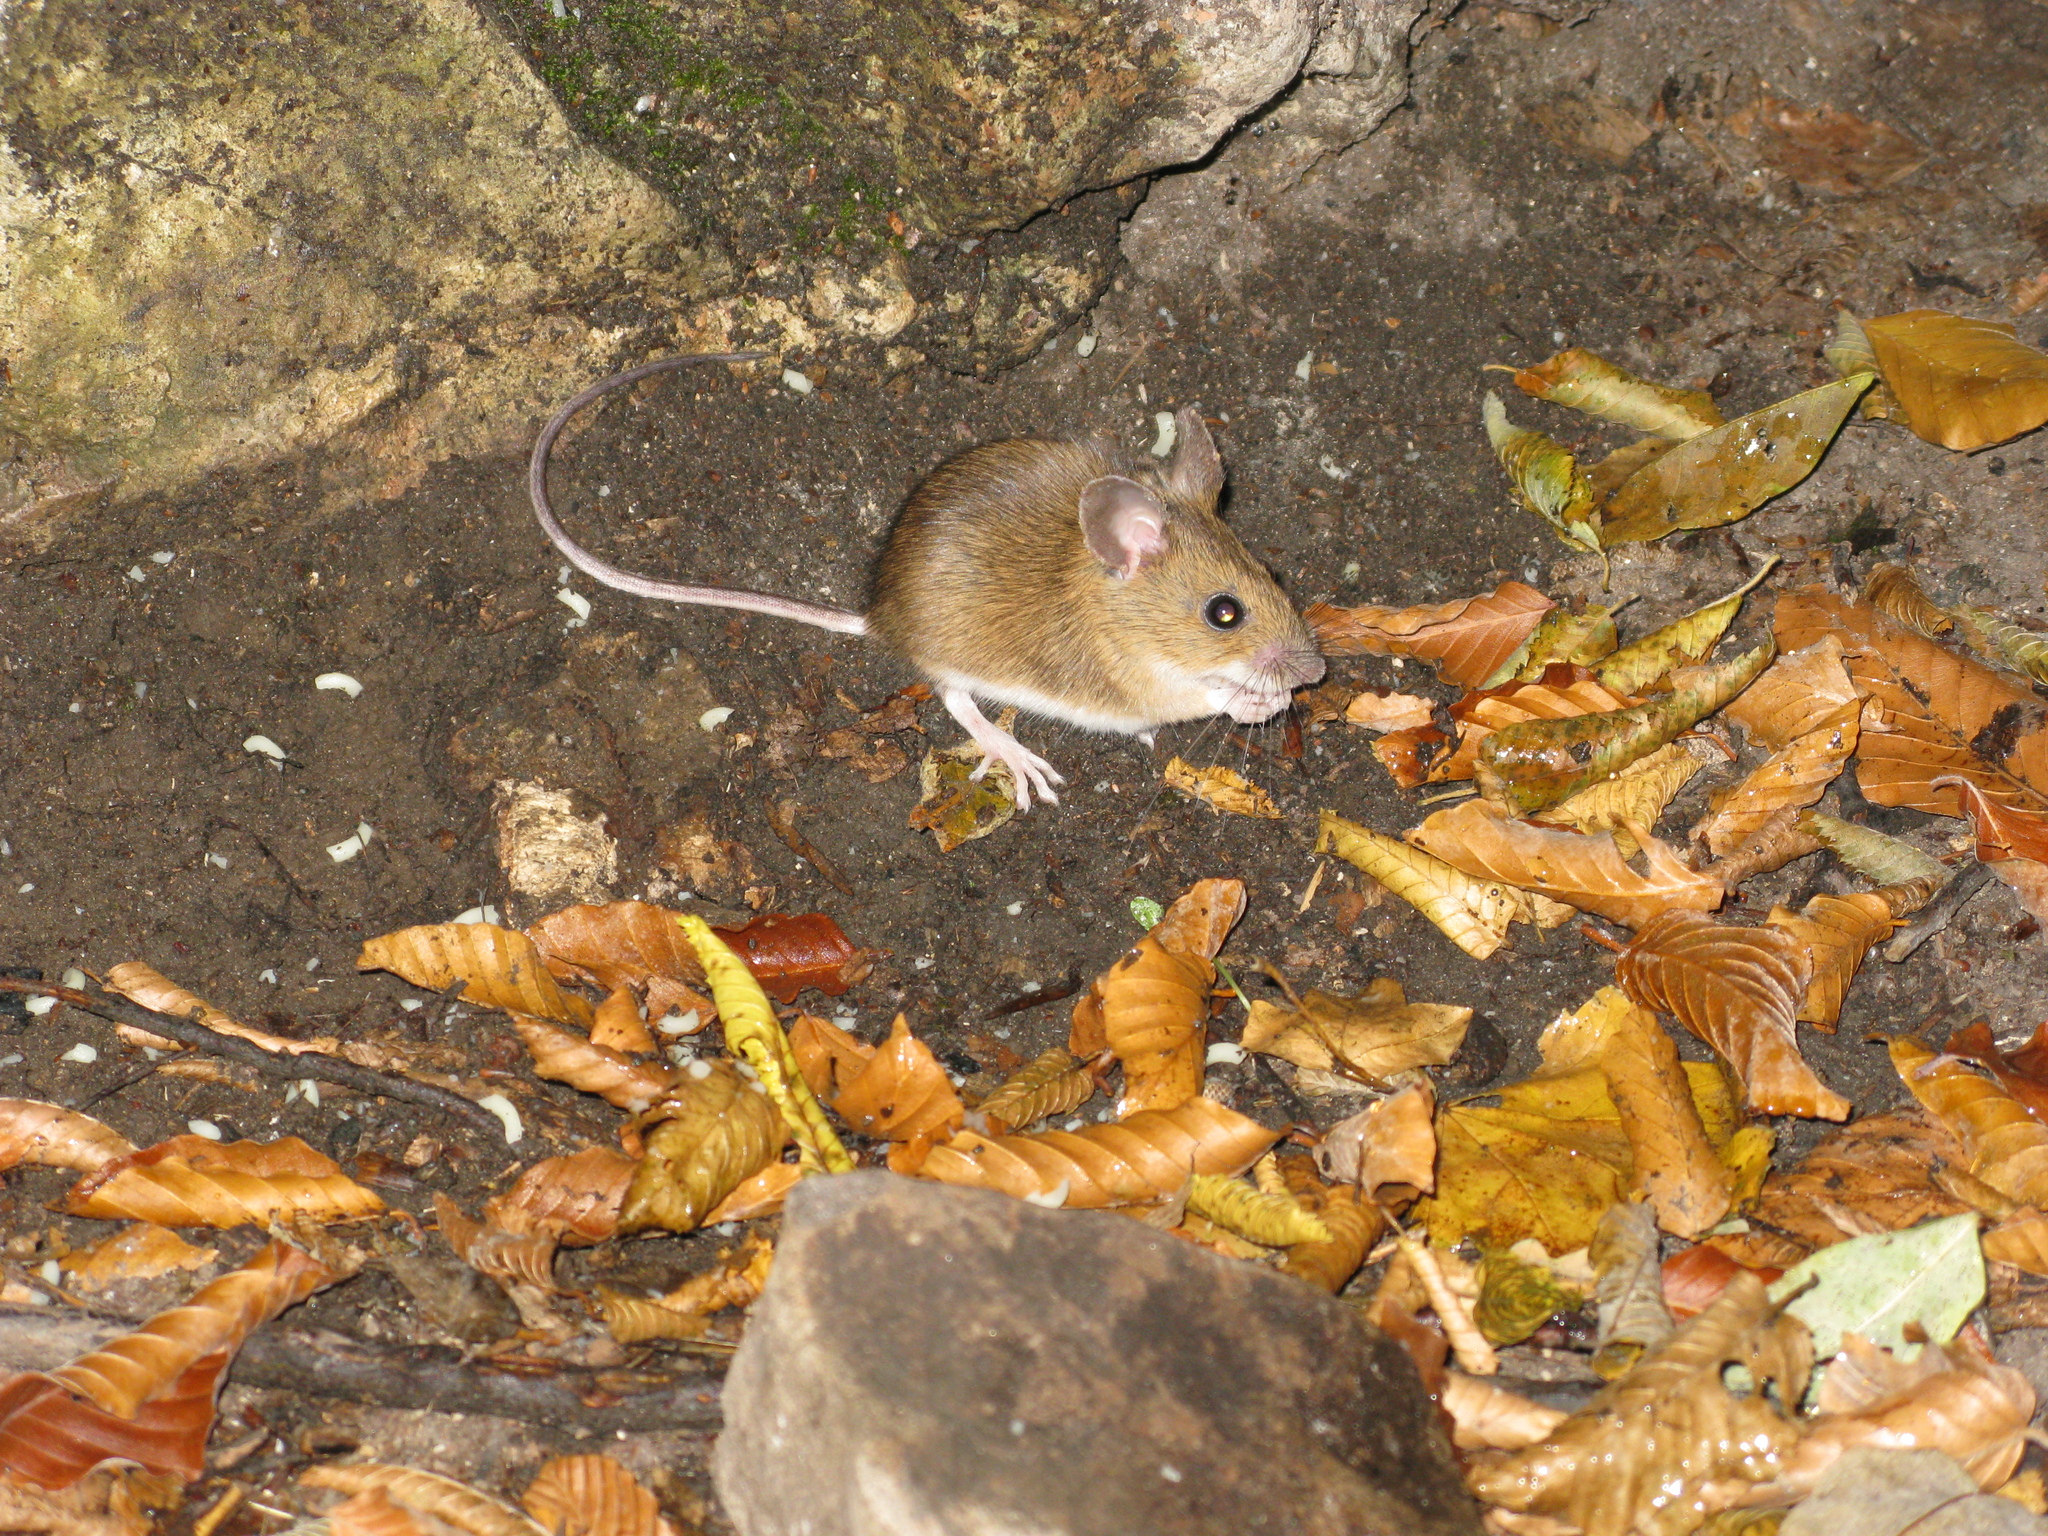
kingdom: Animalia
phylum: Chordata
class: Mammalia
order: Rodentia
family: Muridae
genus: Apodemus
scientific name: Apodemus
